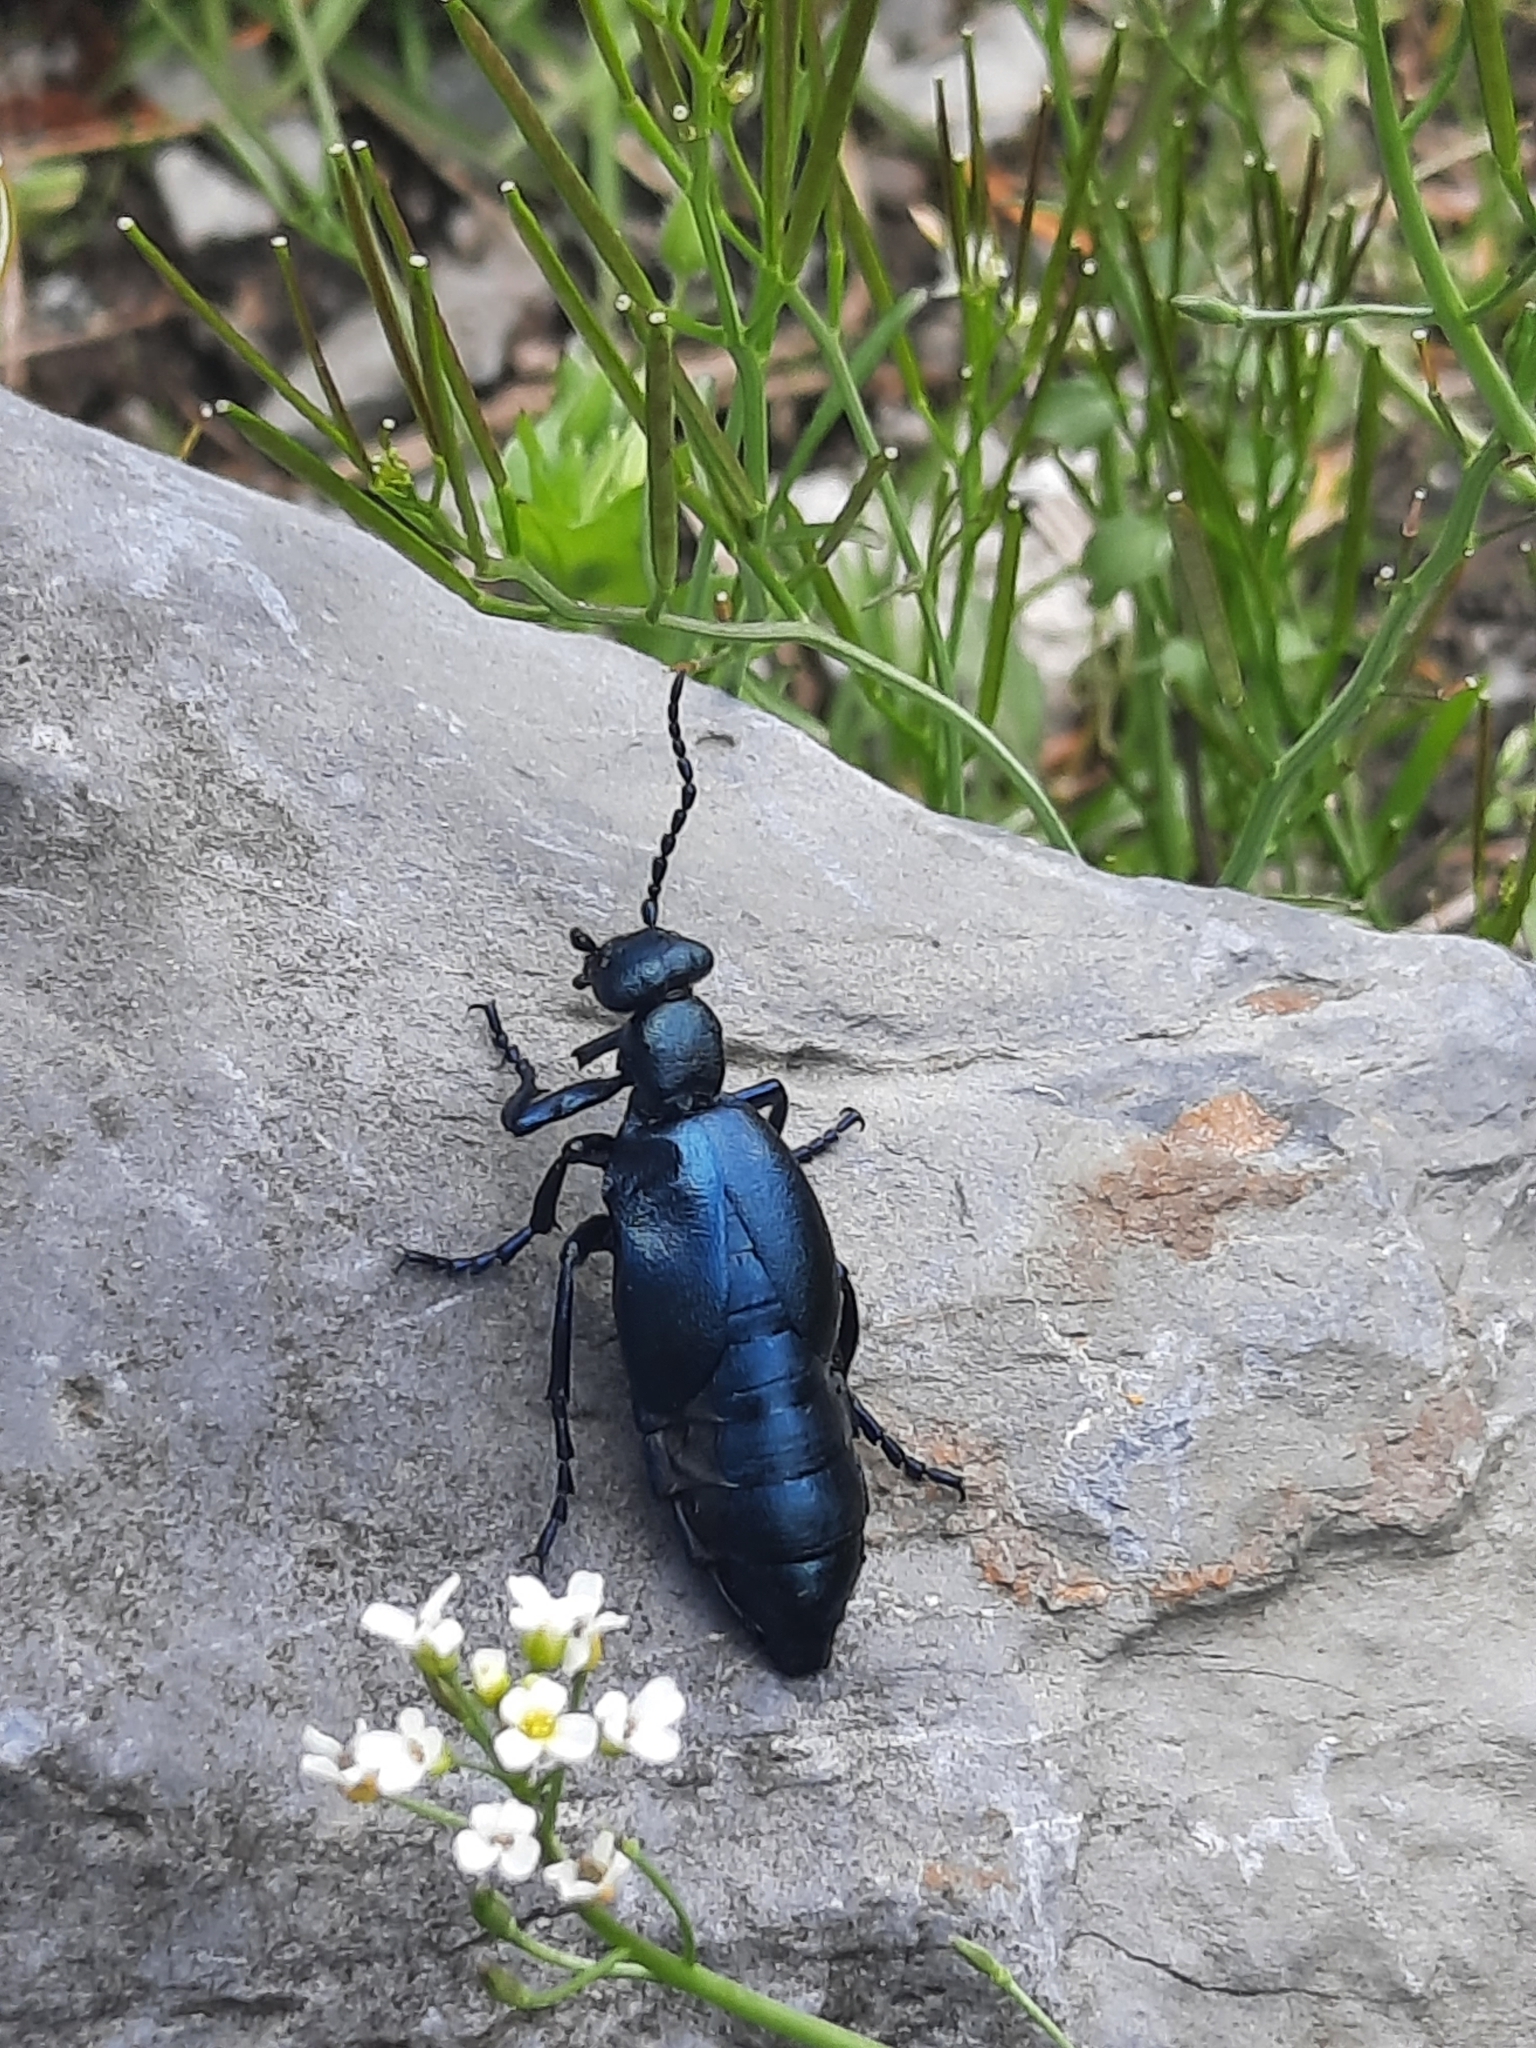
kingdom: Animalia
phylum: Arthropoda
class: Insecta
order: Coleoptera
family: Meloidae
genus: Meloe
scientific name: Meloe violaceus
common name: Violet oil-beetle
